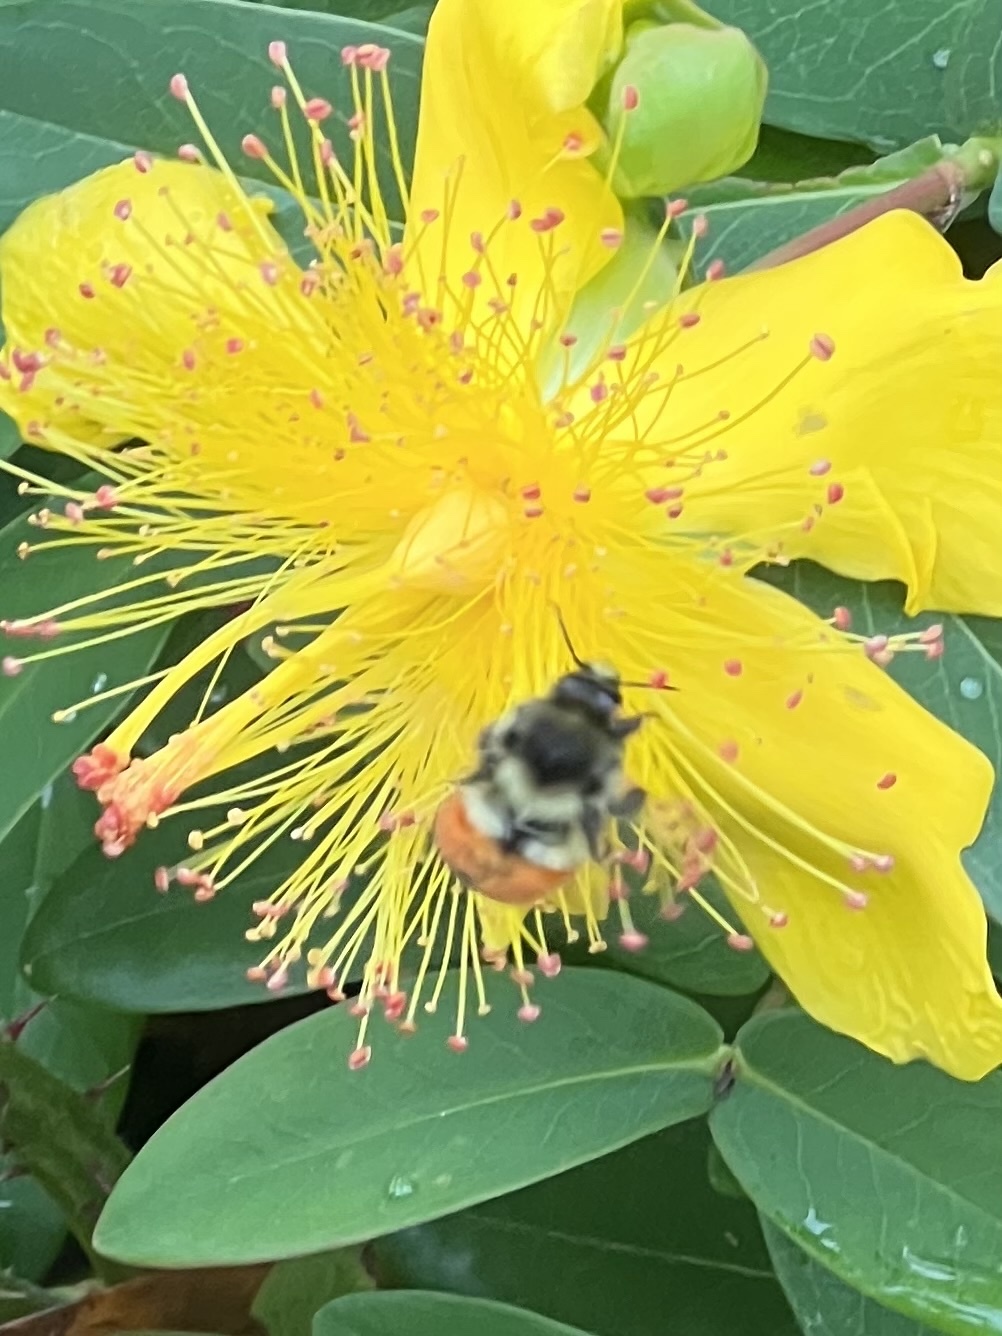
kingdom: Animalia
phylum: Arthropoda
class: Insecta
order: Hymenoptera
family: Apidae
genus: Bombus
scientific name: Bombus melanopygus
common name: Black tail bumble bee
